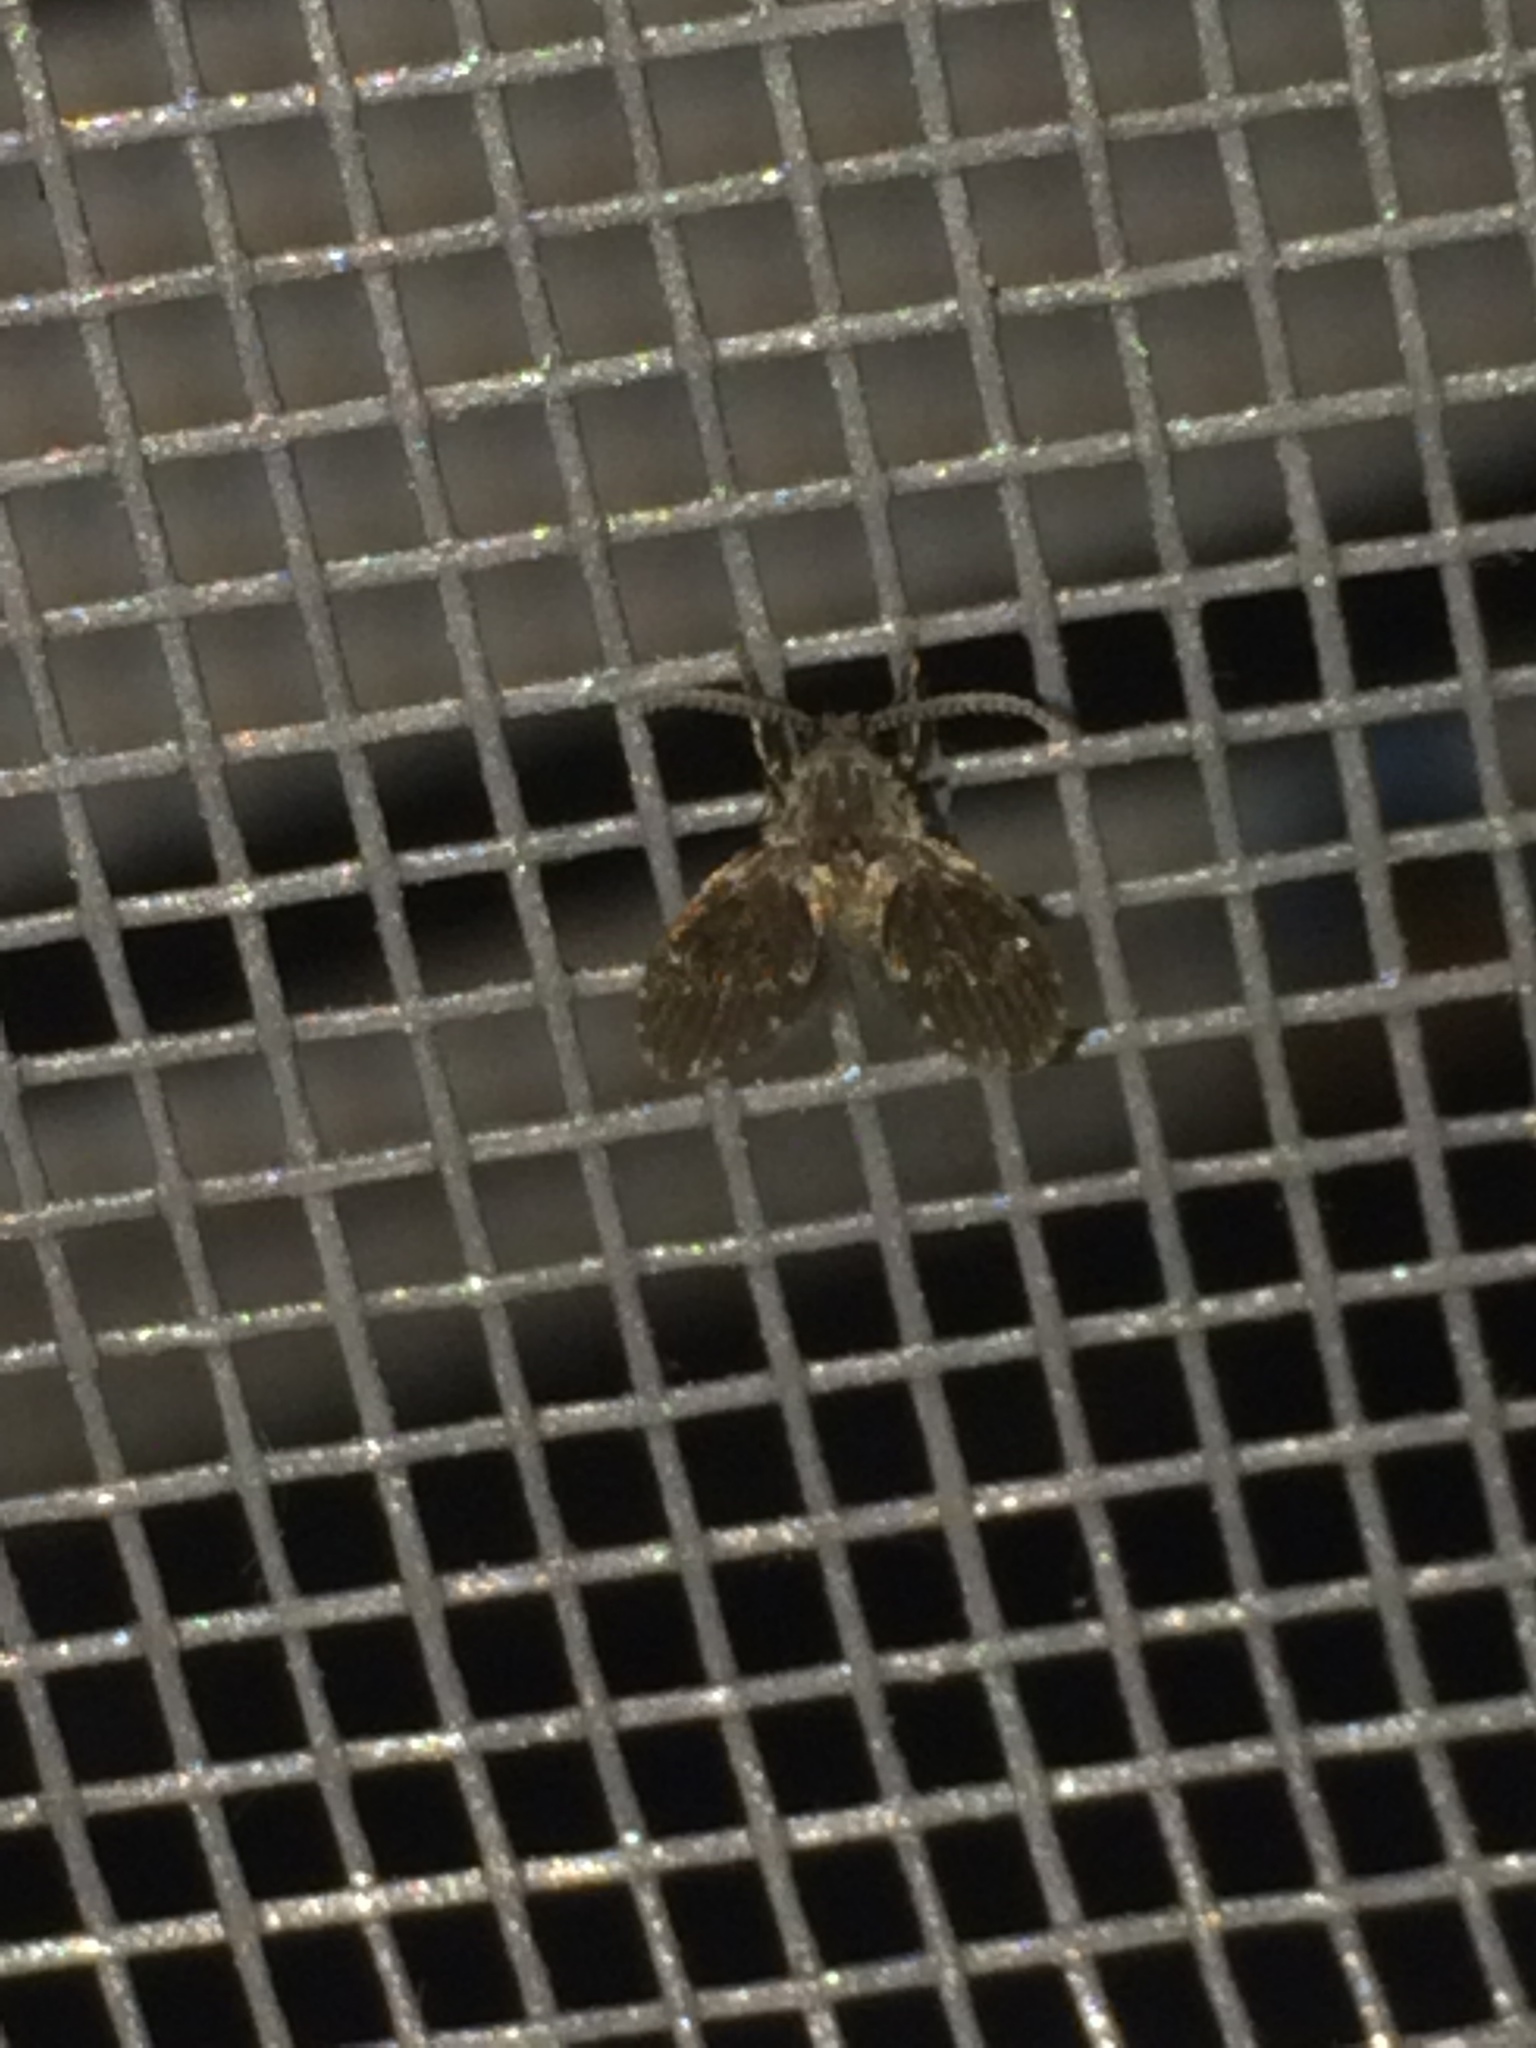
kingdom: Animalia
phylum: Arthropoda
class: Insecta
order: Diptera
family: Psychodidae
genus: Clogmia
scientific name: Clogmia albipunctatus
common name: White-spotted moth fly
